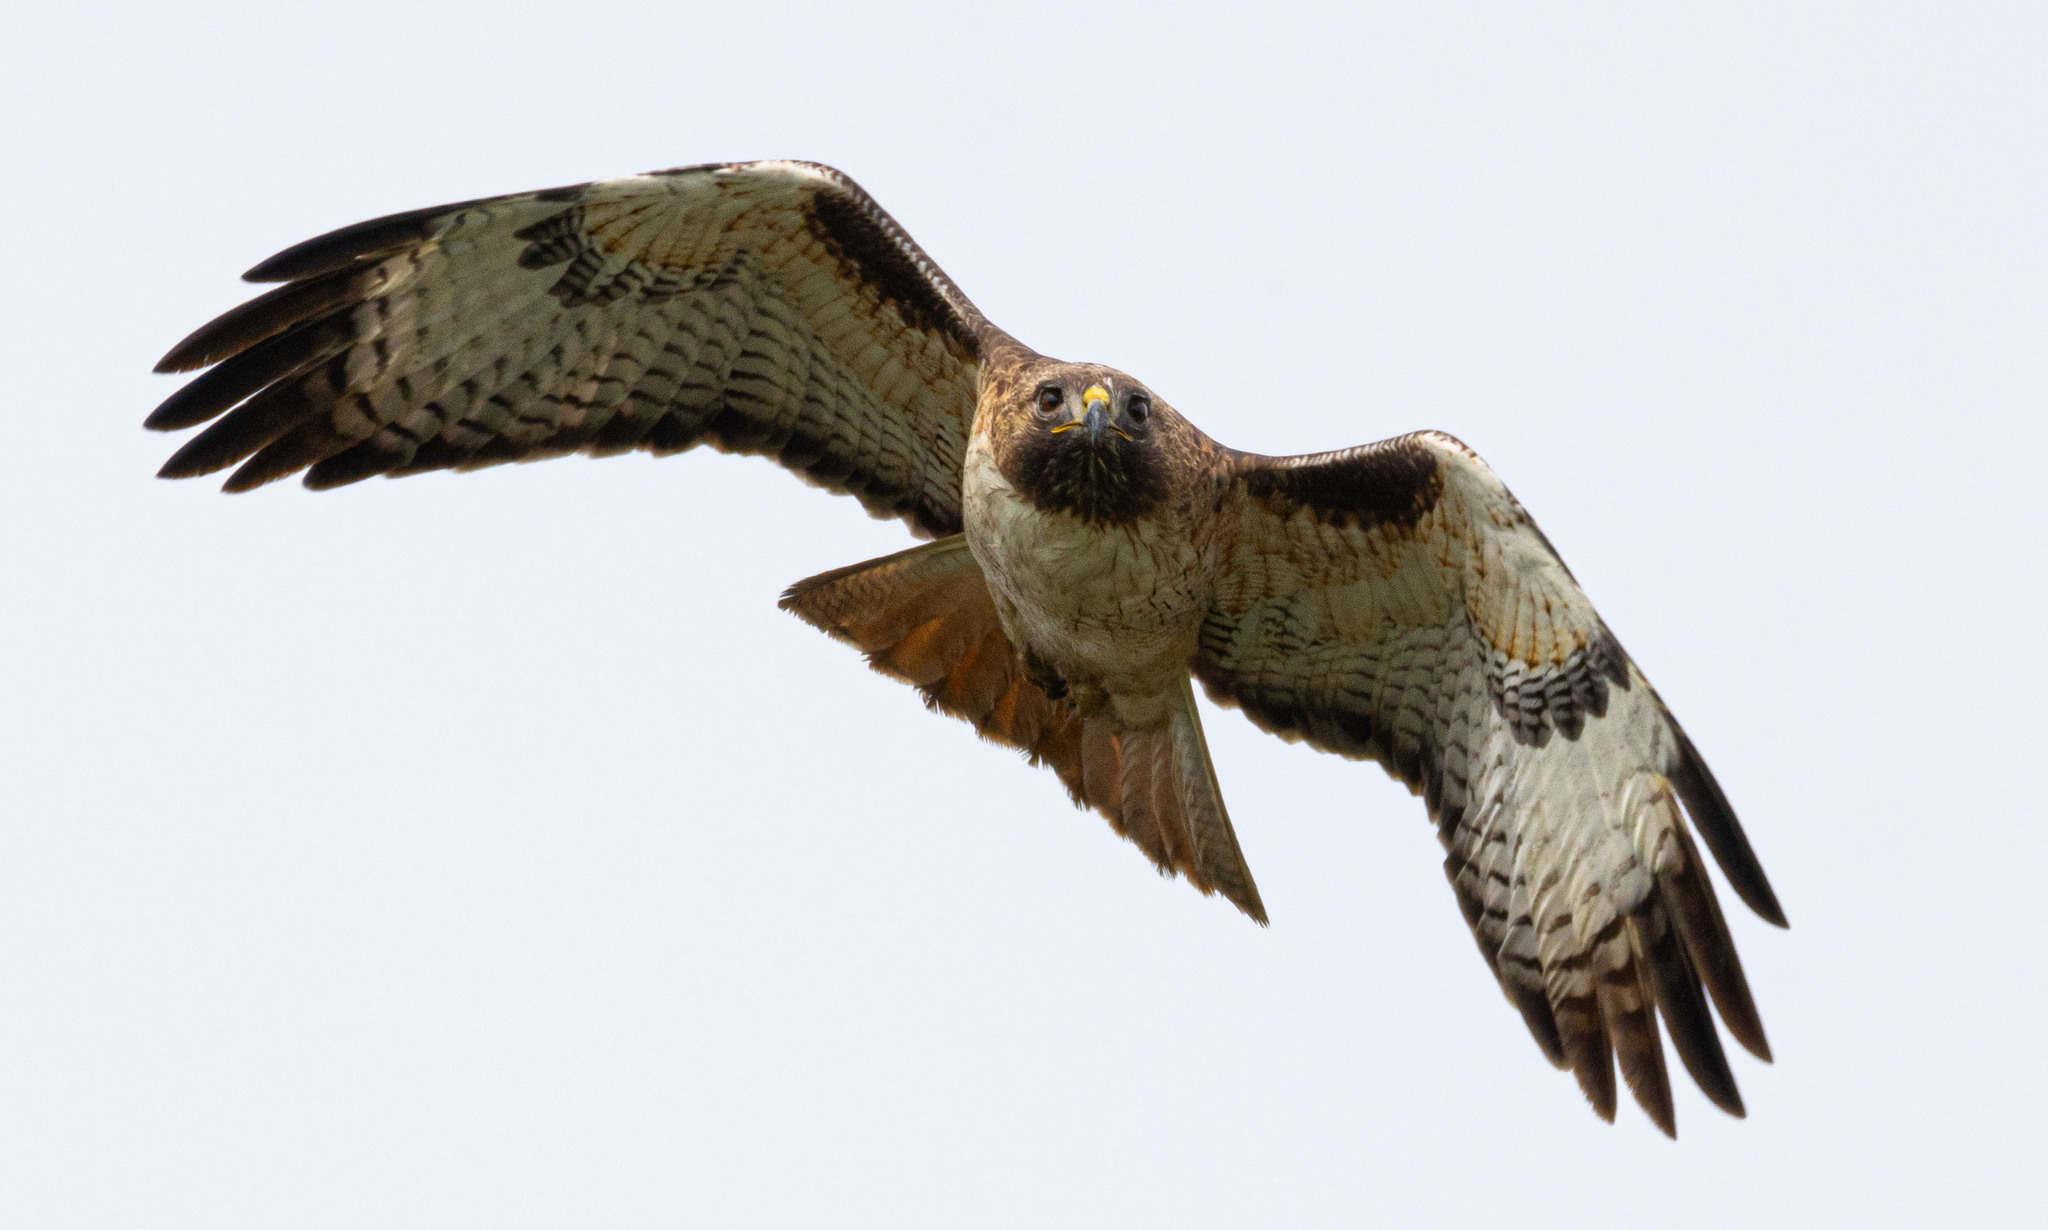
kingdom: Animalia
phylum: Chordata
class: Aves
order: Accipitriformes
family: Accipitridae
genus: Buteo
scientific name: Buteo jamaicensis
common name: Red-tailed hawk
